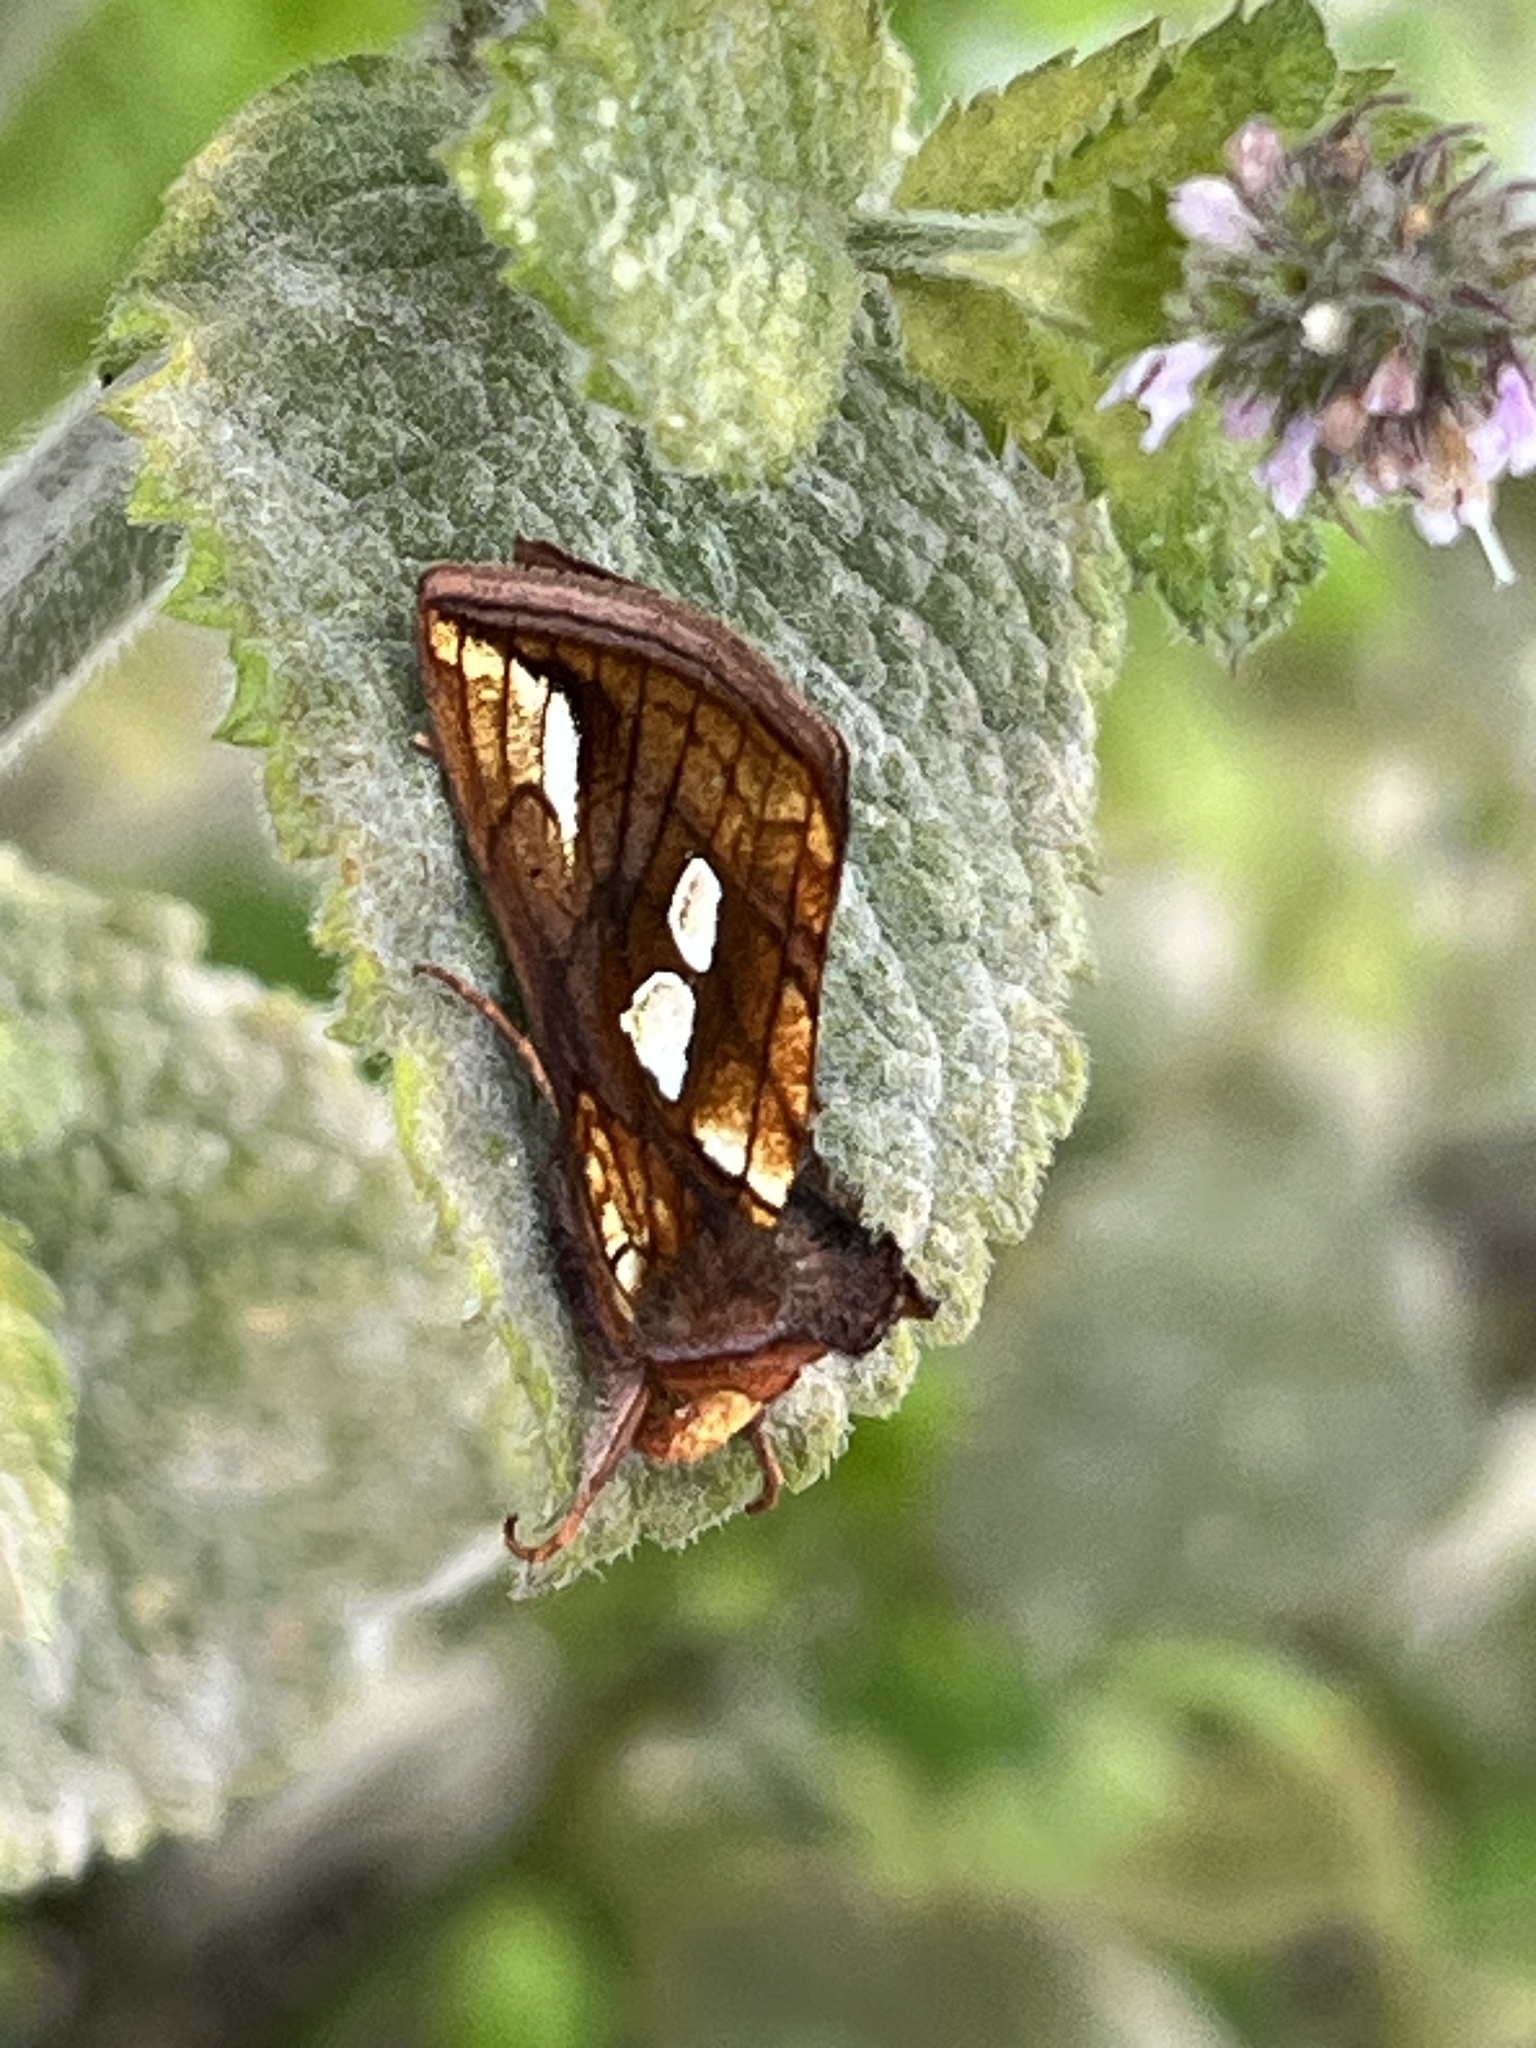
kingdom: Animalia
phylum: Arthropoda
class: Insecta
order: Lepidoptera
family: Noctuidae
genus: Plusia
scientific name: Plusia festucae
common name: Gold spot
